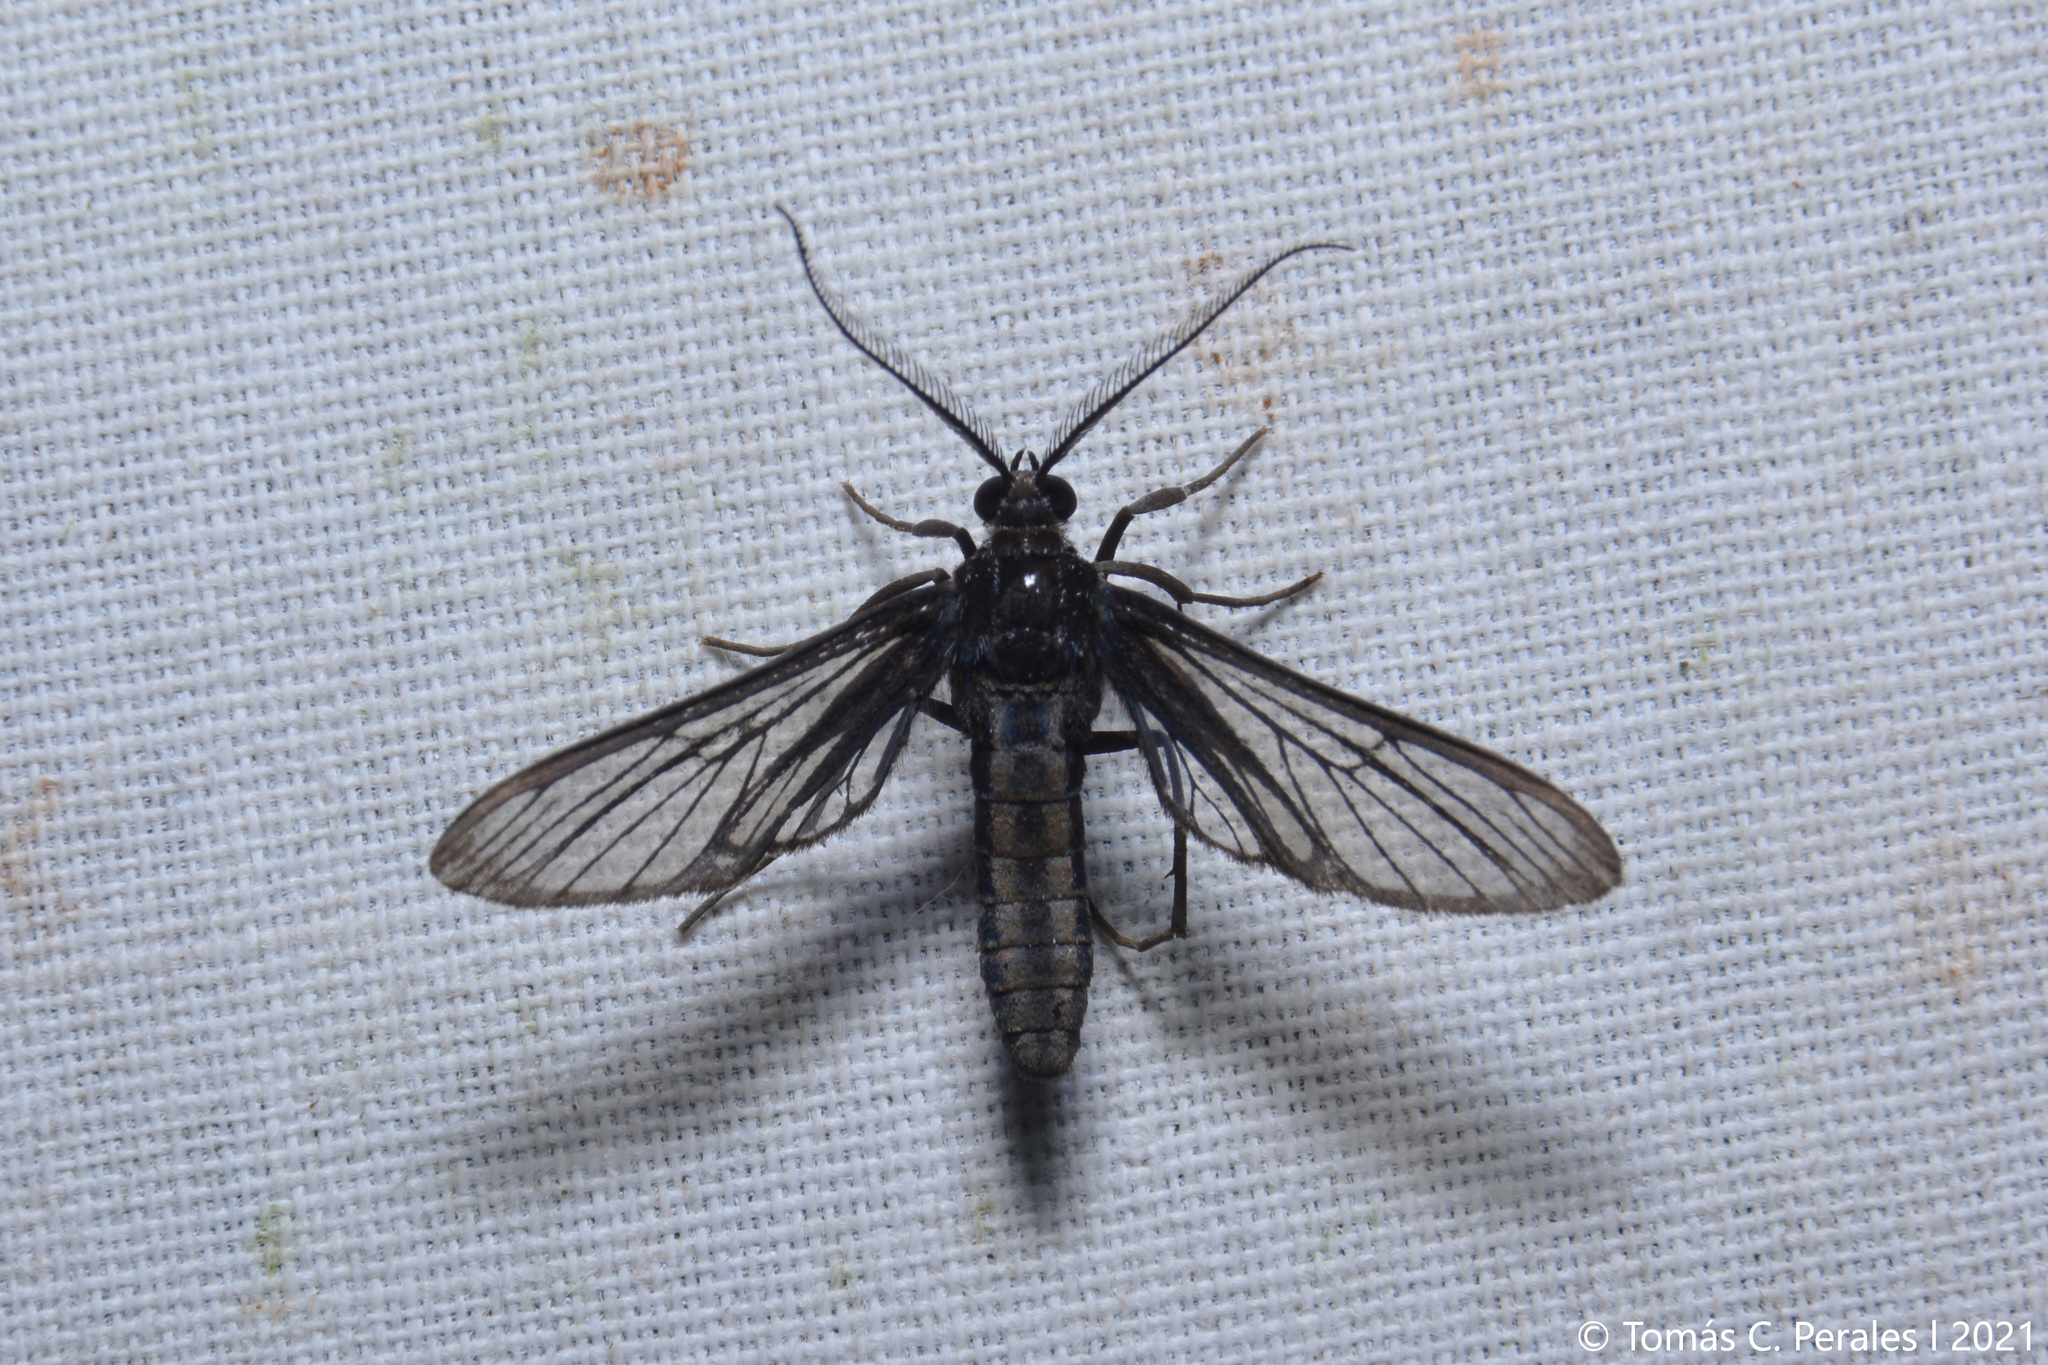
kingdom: Animalia
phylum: Arthropoda
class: Insecta
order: Lepidoptera
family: Erebidae
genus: Mesothen
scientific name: Mesothen desperata
